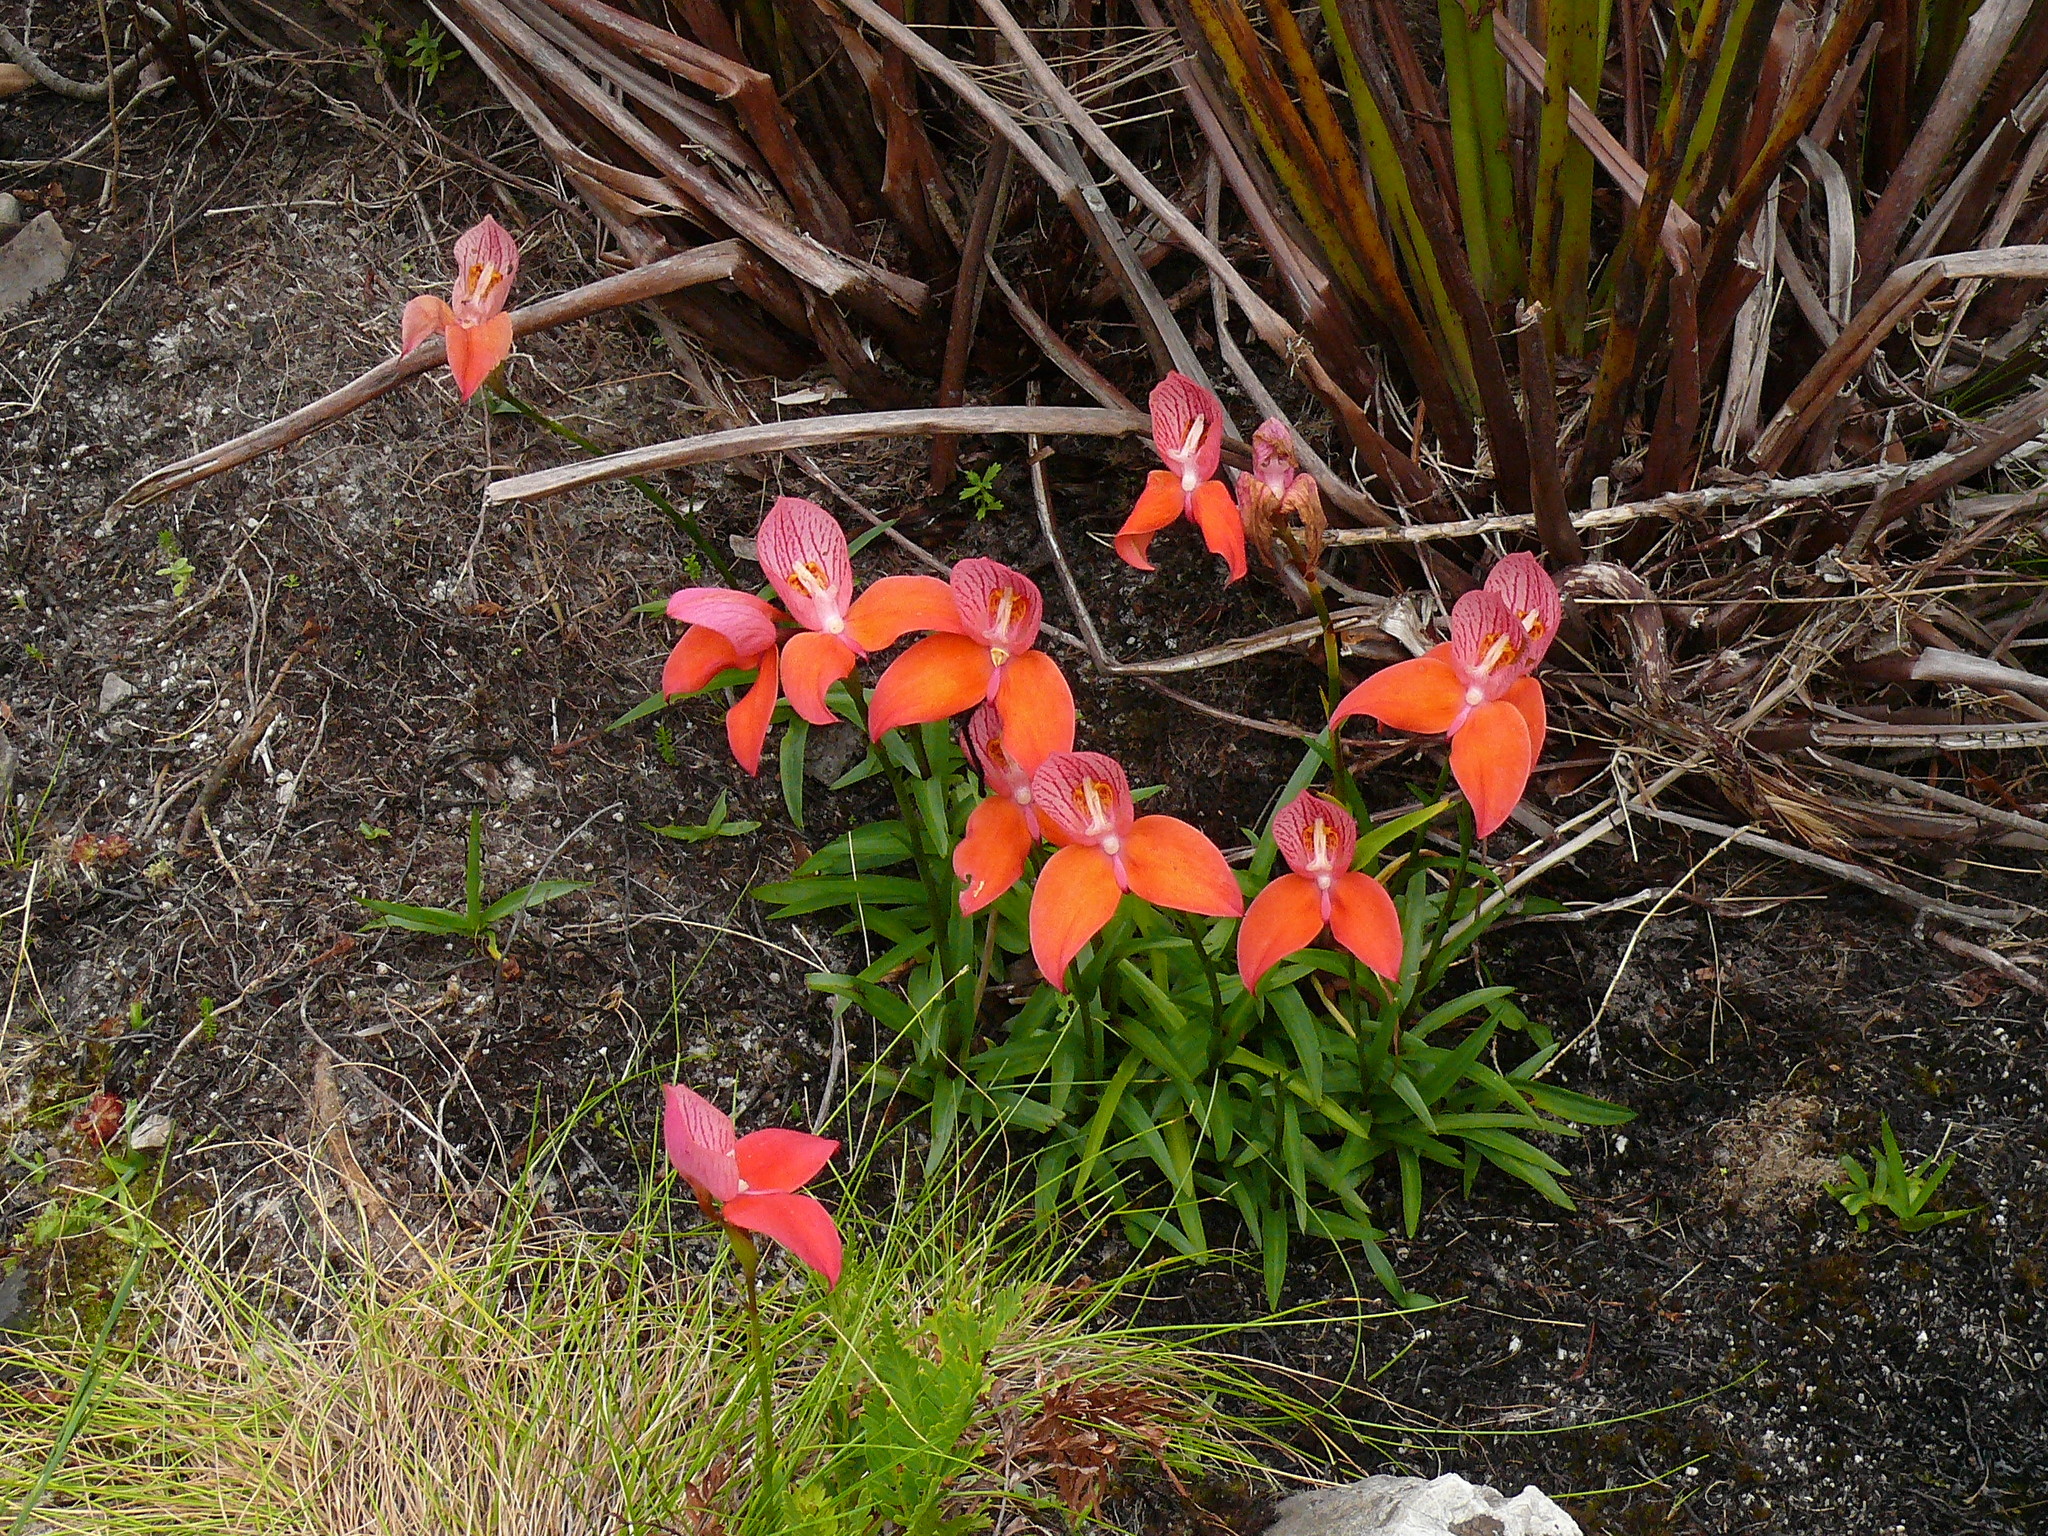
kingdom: Plantae
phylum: Tracheophyta
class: Liliopsida
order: Asparagales
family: Orchidaceae
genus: Disa
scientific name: Disa uniflora
